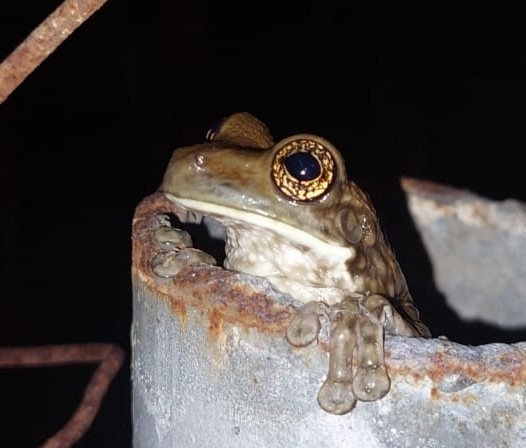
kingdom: Animalia
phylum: Chordata
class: Amphibia
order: Anura
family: Hylidae
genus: Trachycephalus
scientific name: Trachycephalus vermiculatus
